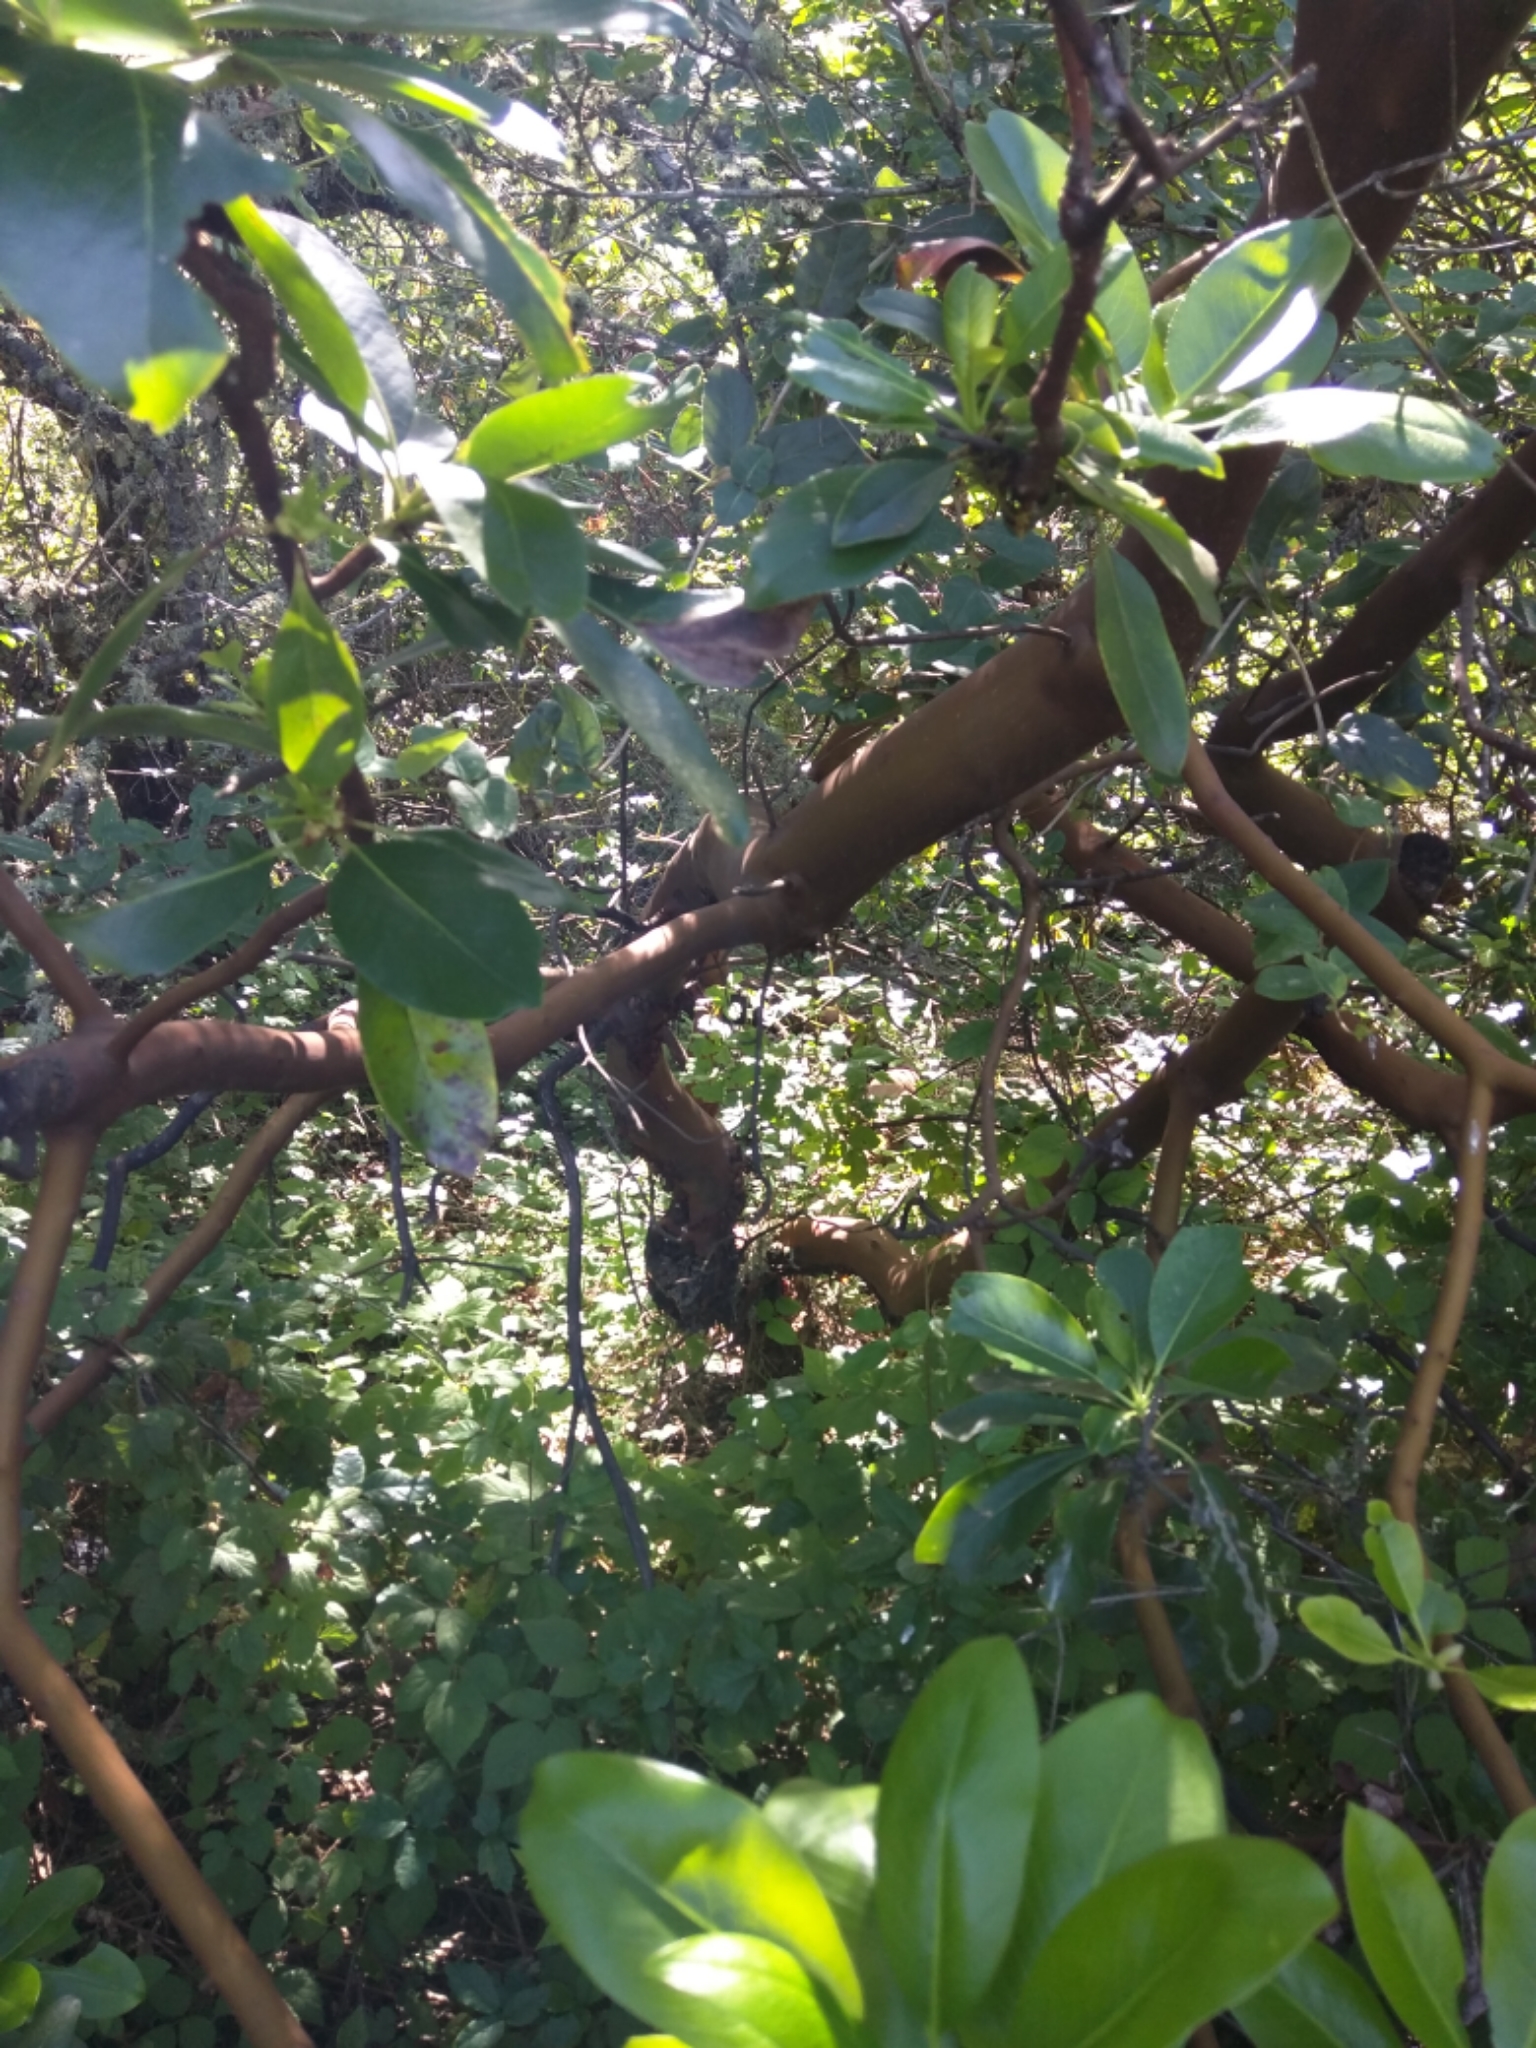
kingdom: Plantae
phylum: Tracheophyta
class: Magnoliopsida
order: Ericales
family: Ericaceae
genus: Arbutus
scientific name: Arbutus menziesii
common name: Pacific madrone
